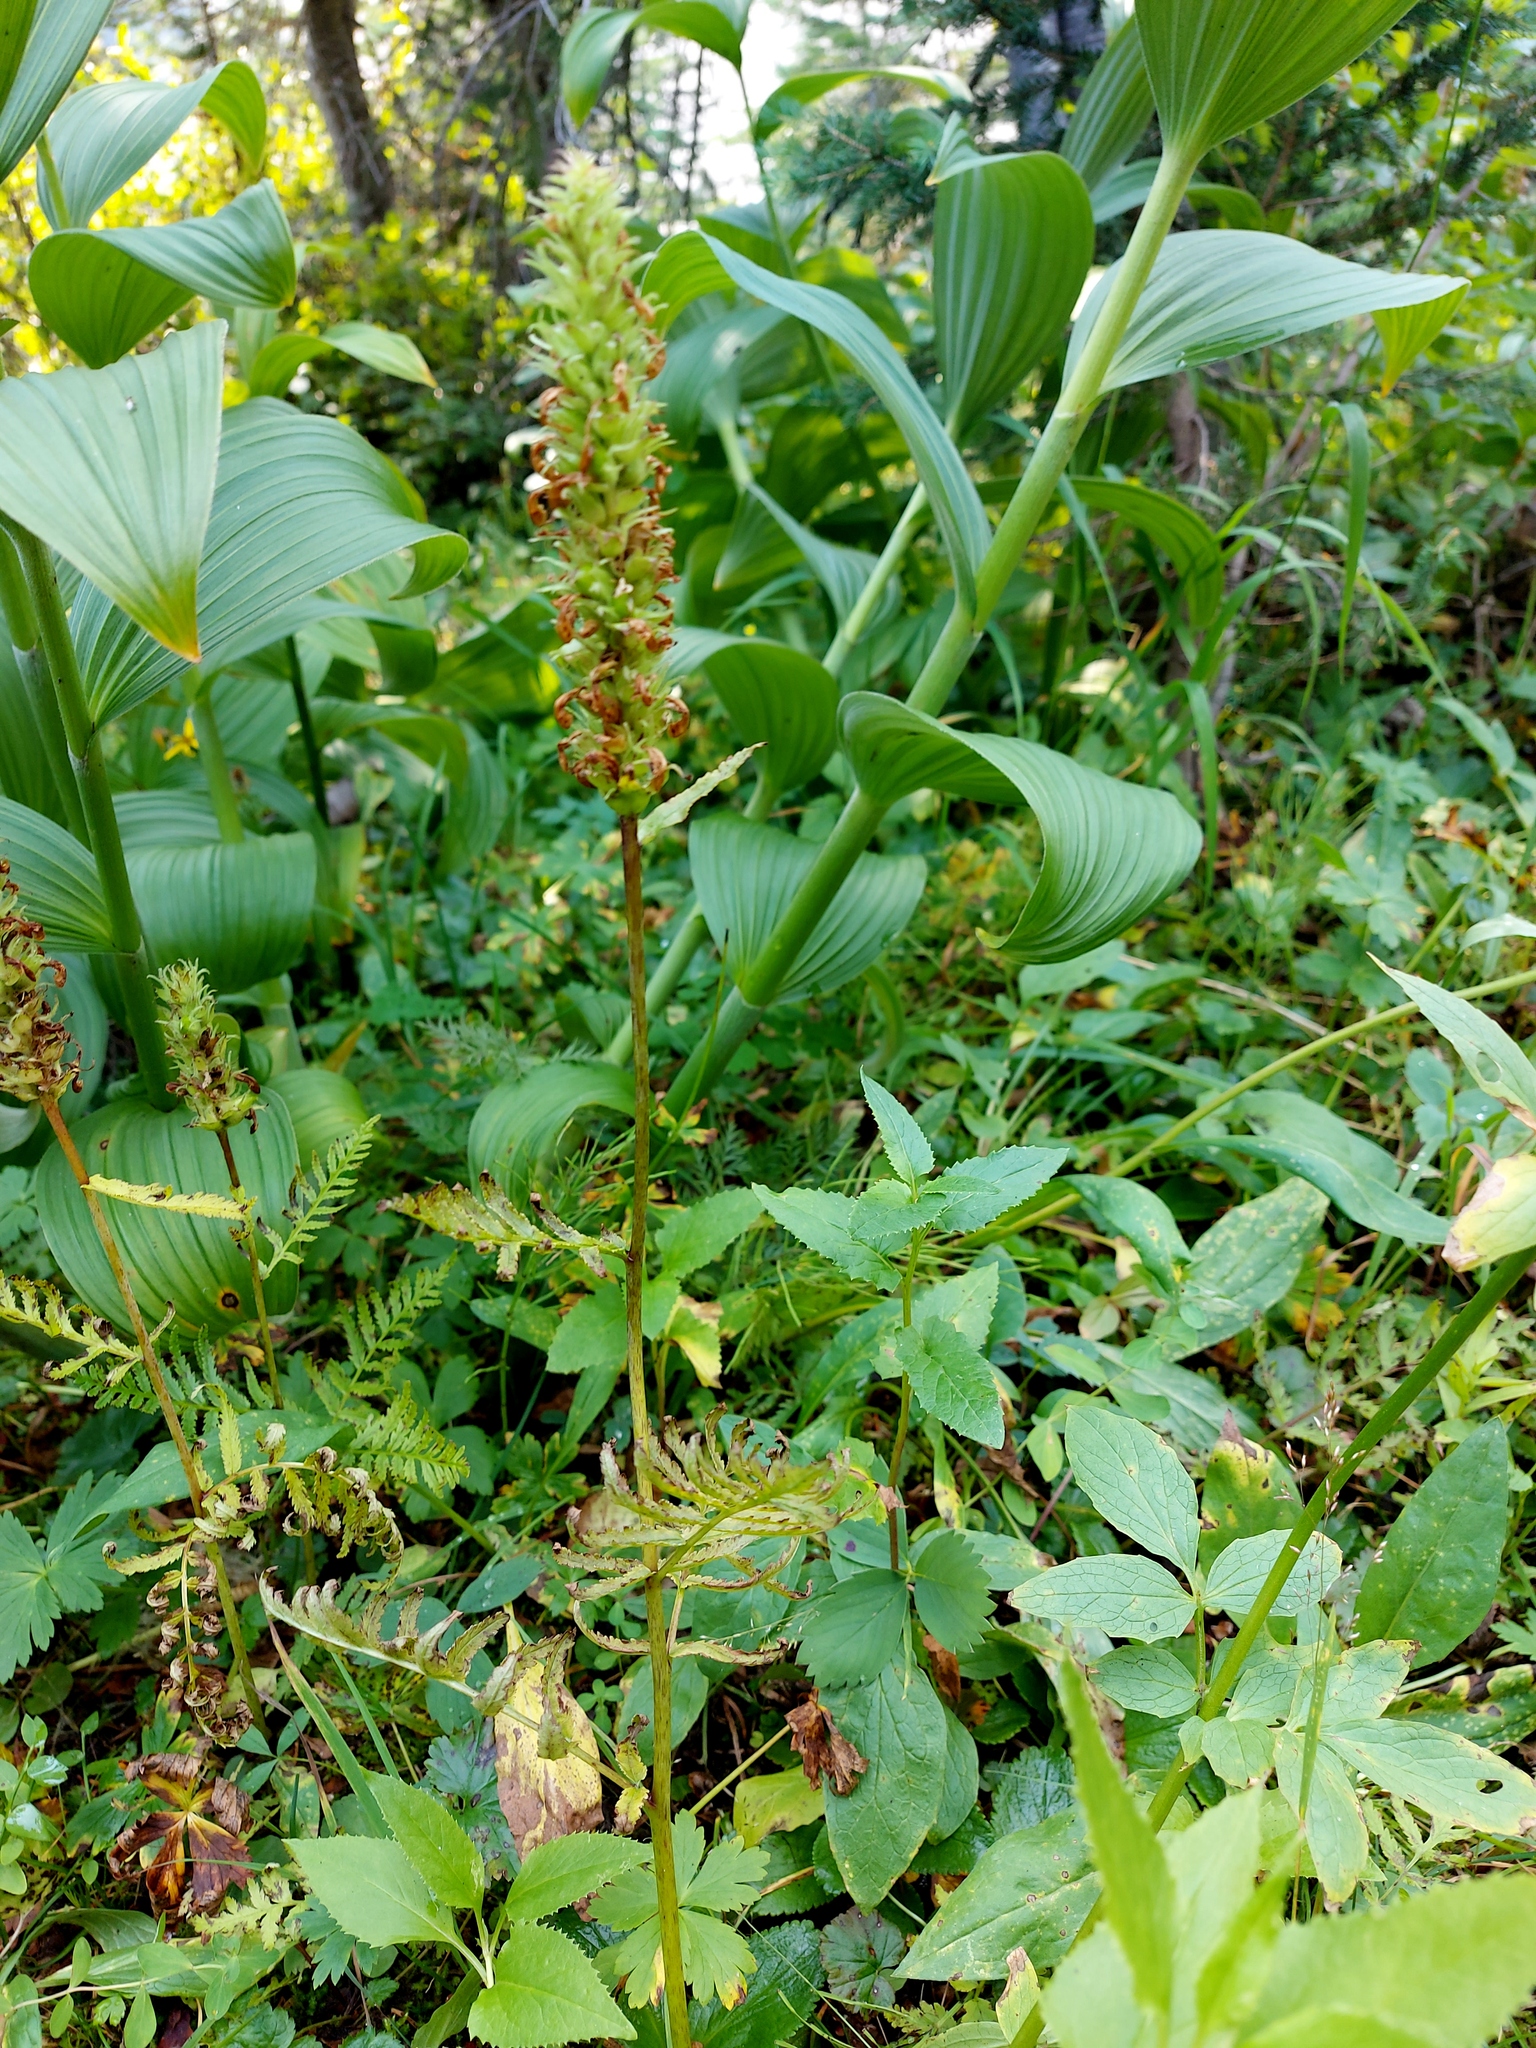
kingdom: Plantae
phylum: Tracheophyta
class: Magnoliopsida
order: Lamiales
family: Orobanchaceae
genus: Pedicularis
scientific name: Pedicularis bracteosa
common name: Bracted lousewort
